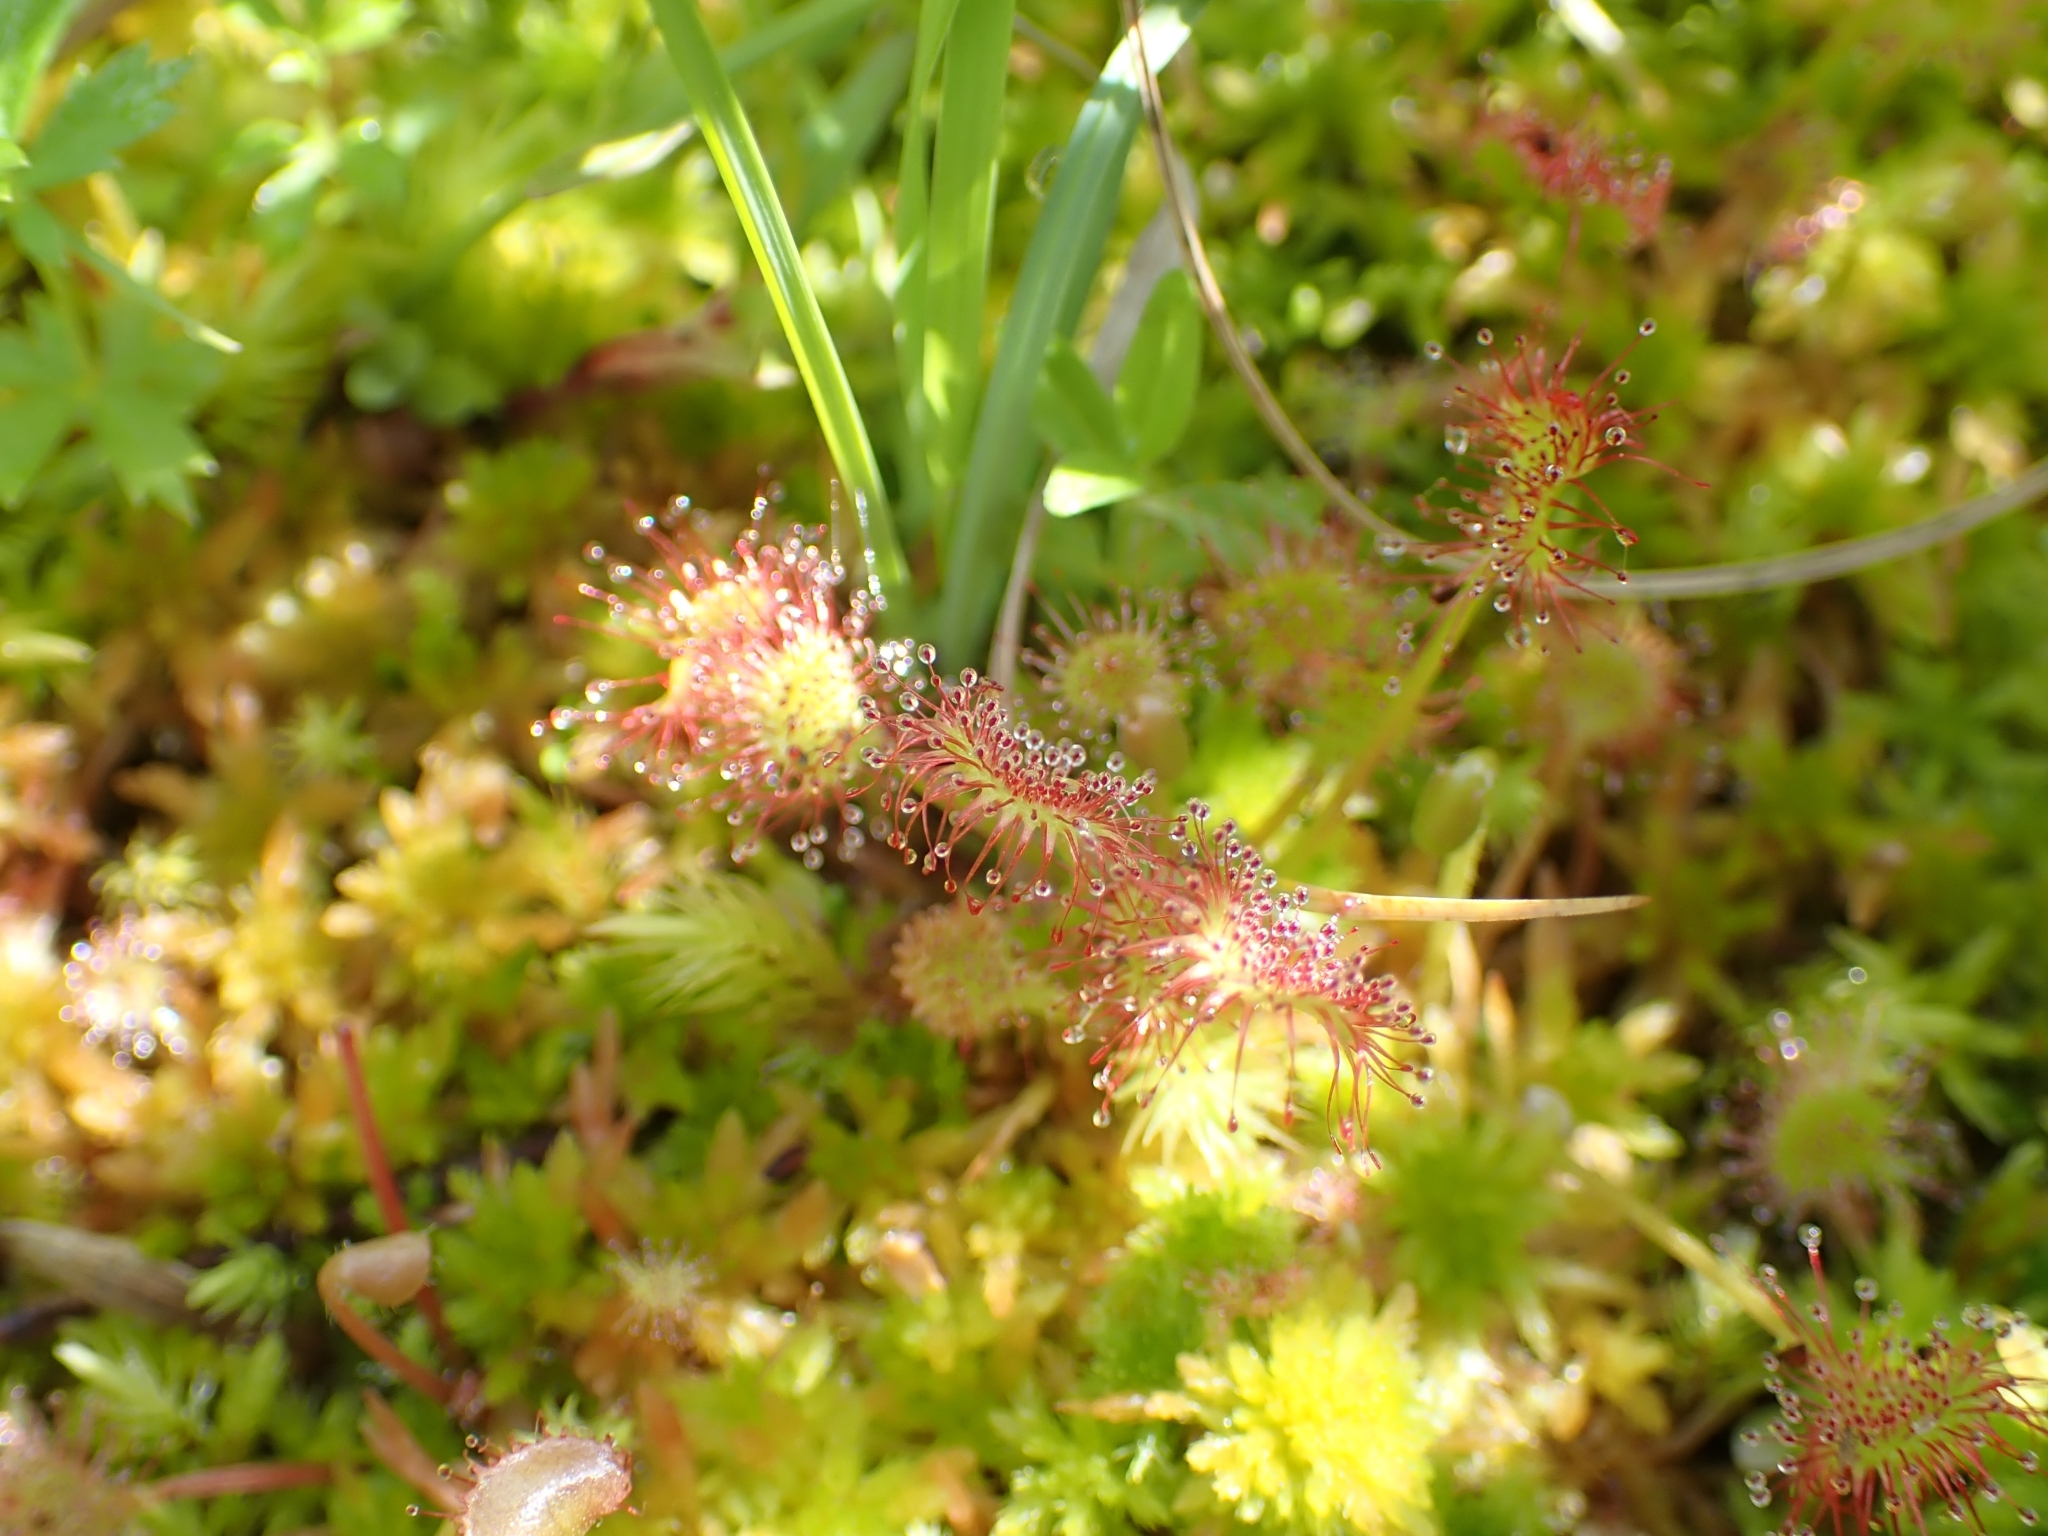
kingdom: Plantae
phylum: Tracheophyta
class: Magnoliopsida
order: Caryophyllales
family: Droseraceae
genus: Drosera
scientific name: Drosera rotundifolia
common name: Round-leaved sundew
